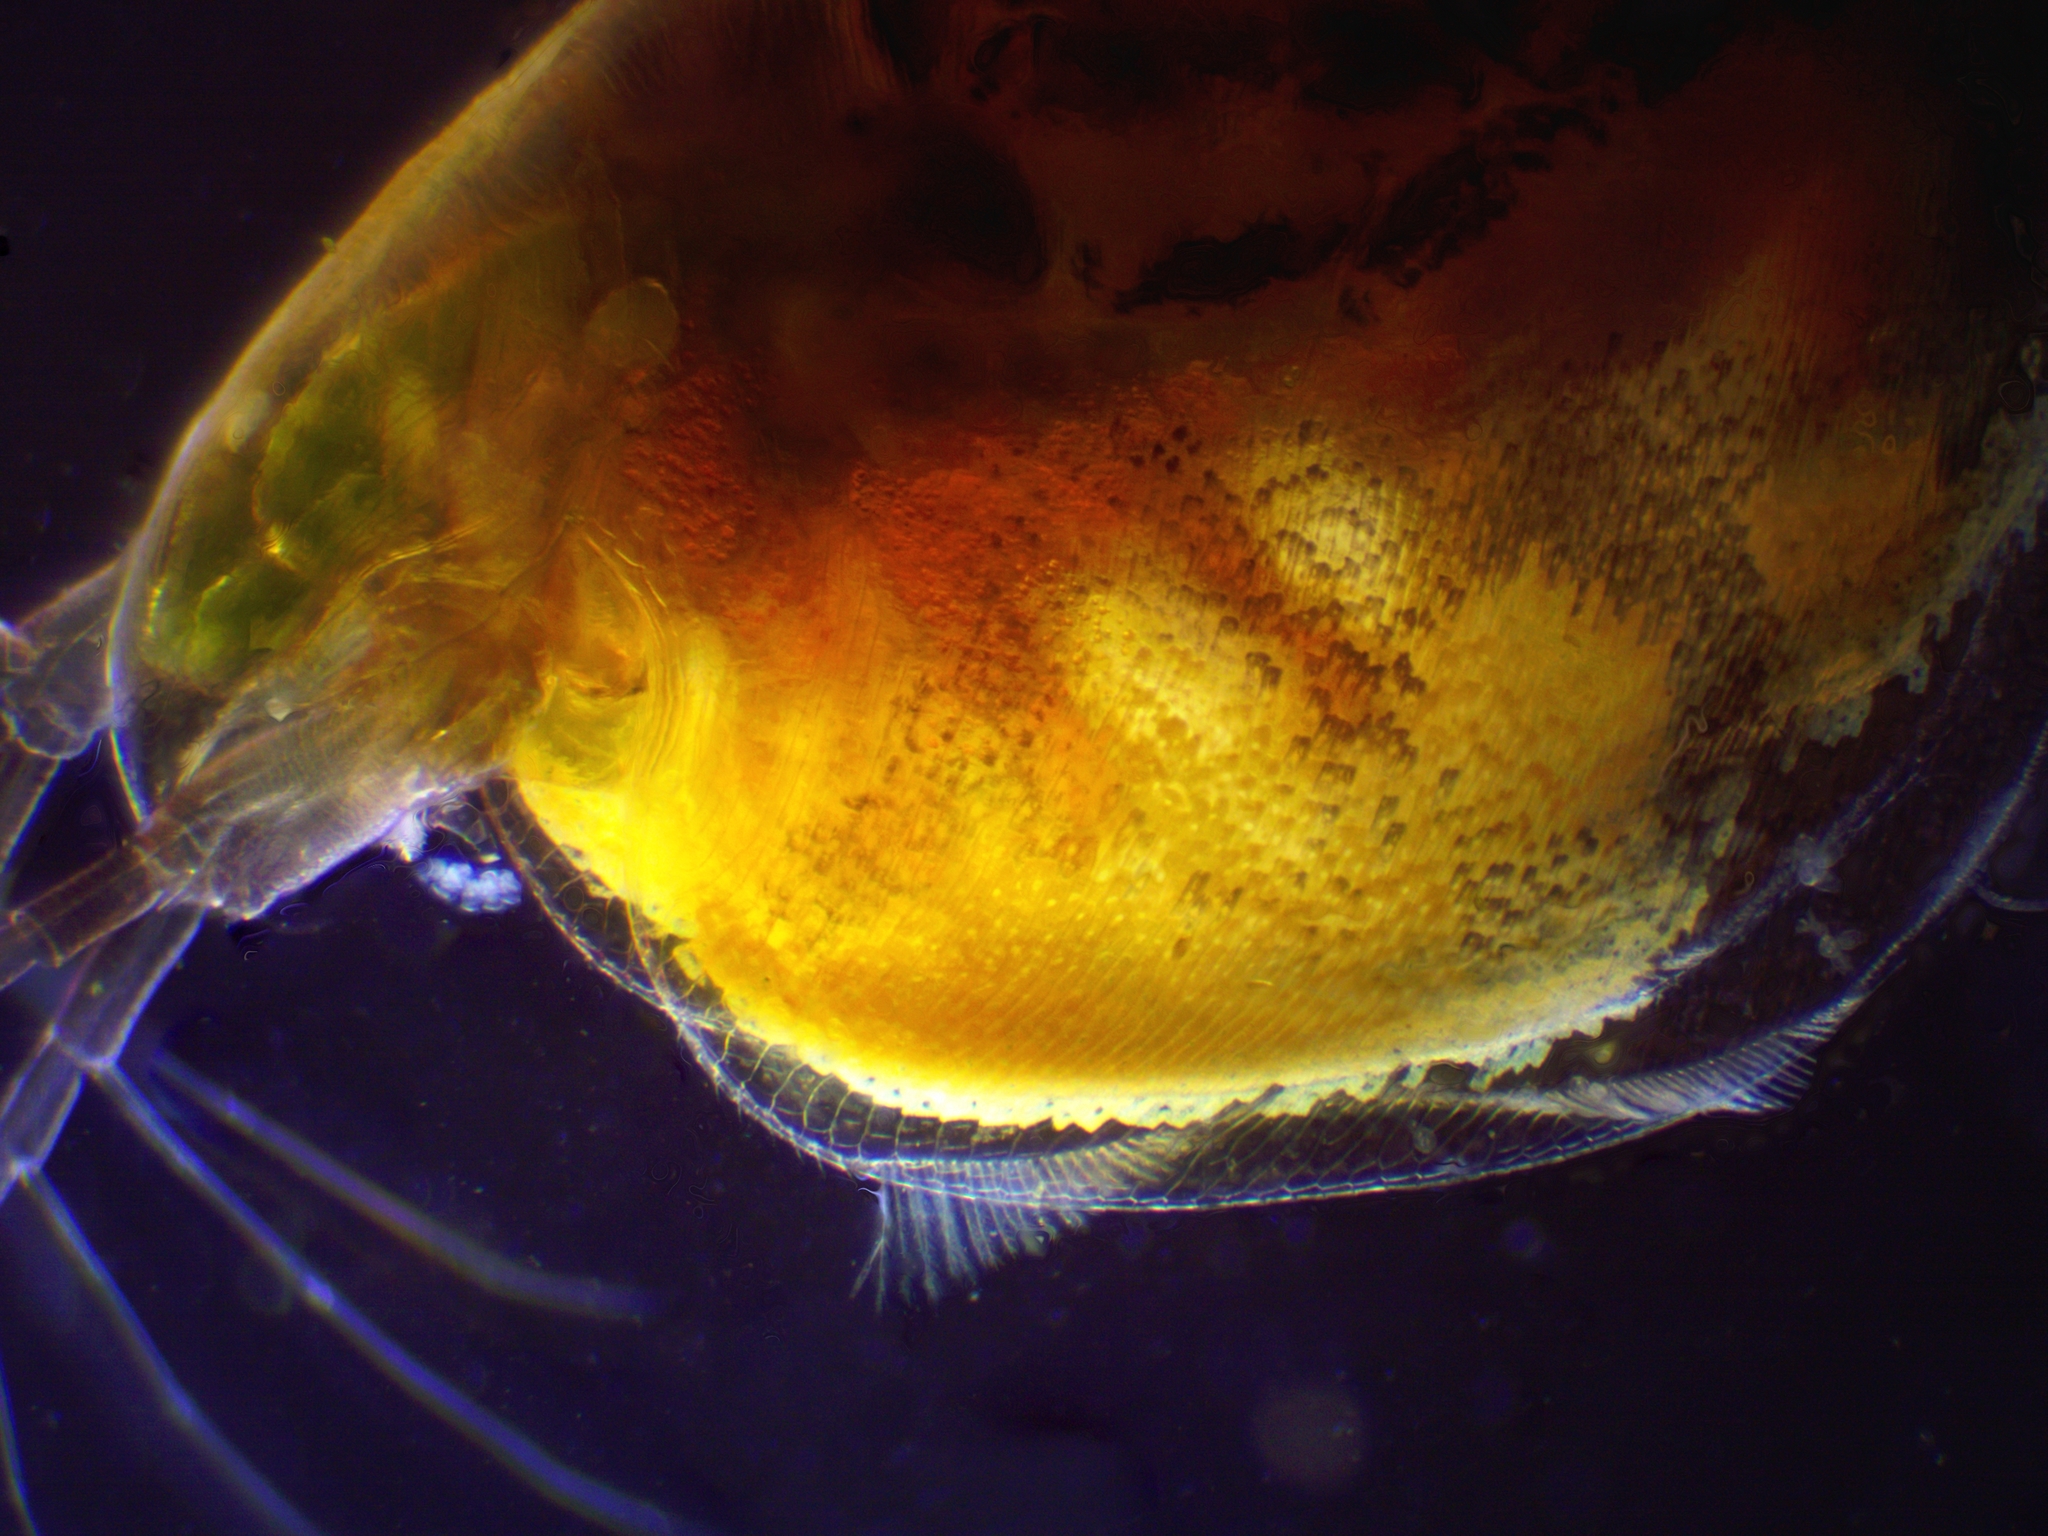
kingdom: Animalia
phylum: Arthropoda
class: Branchiopoda
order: Diplostraca
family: Daphniidae
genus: Simocephalus
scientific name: Simocephalus exspinosus
